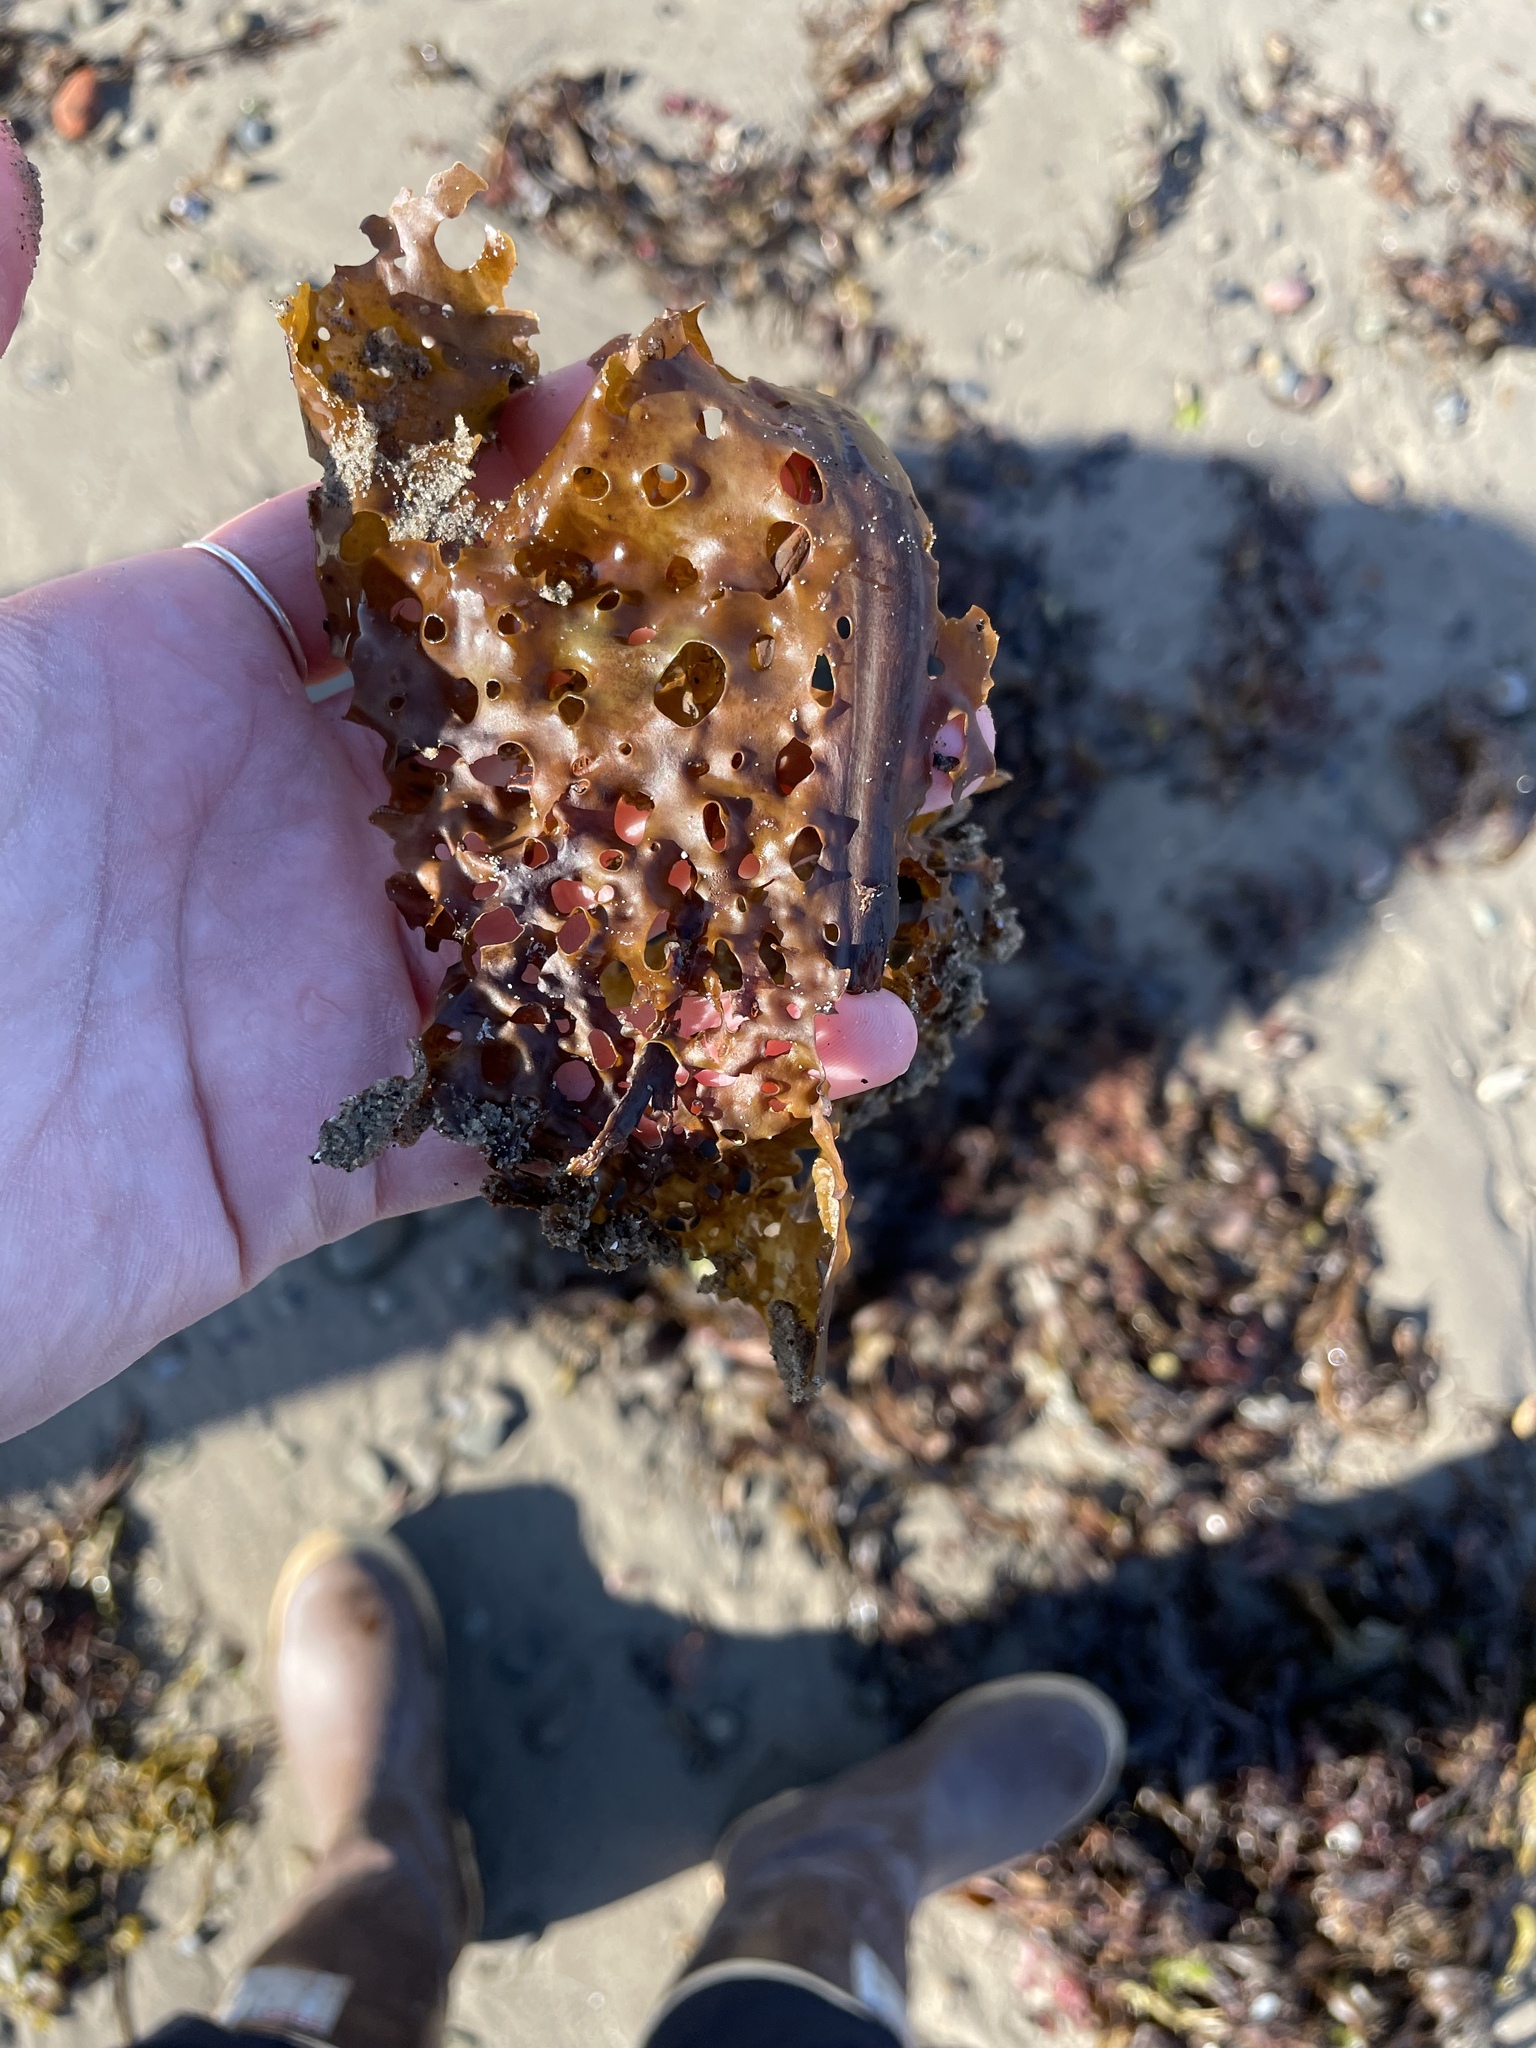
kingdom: Chromista
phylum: Ochrophyta
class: Phaeophyceae
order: Laminariales
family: Costariaceae
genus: Agarum
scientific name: Agarum clathratum
